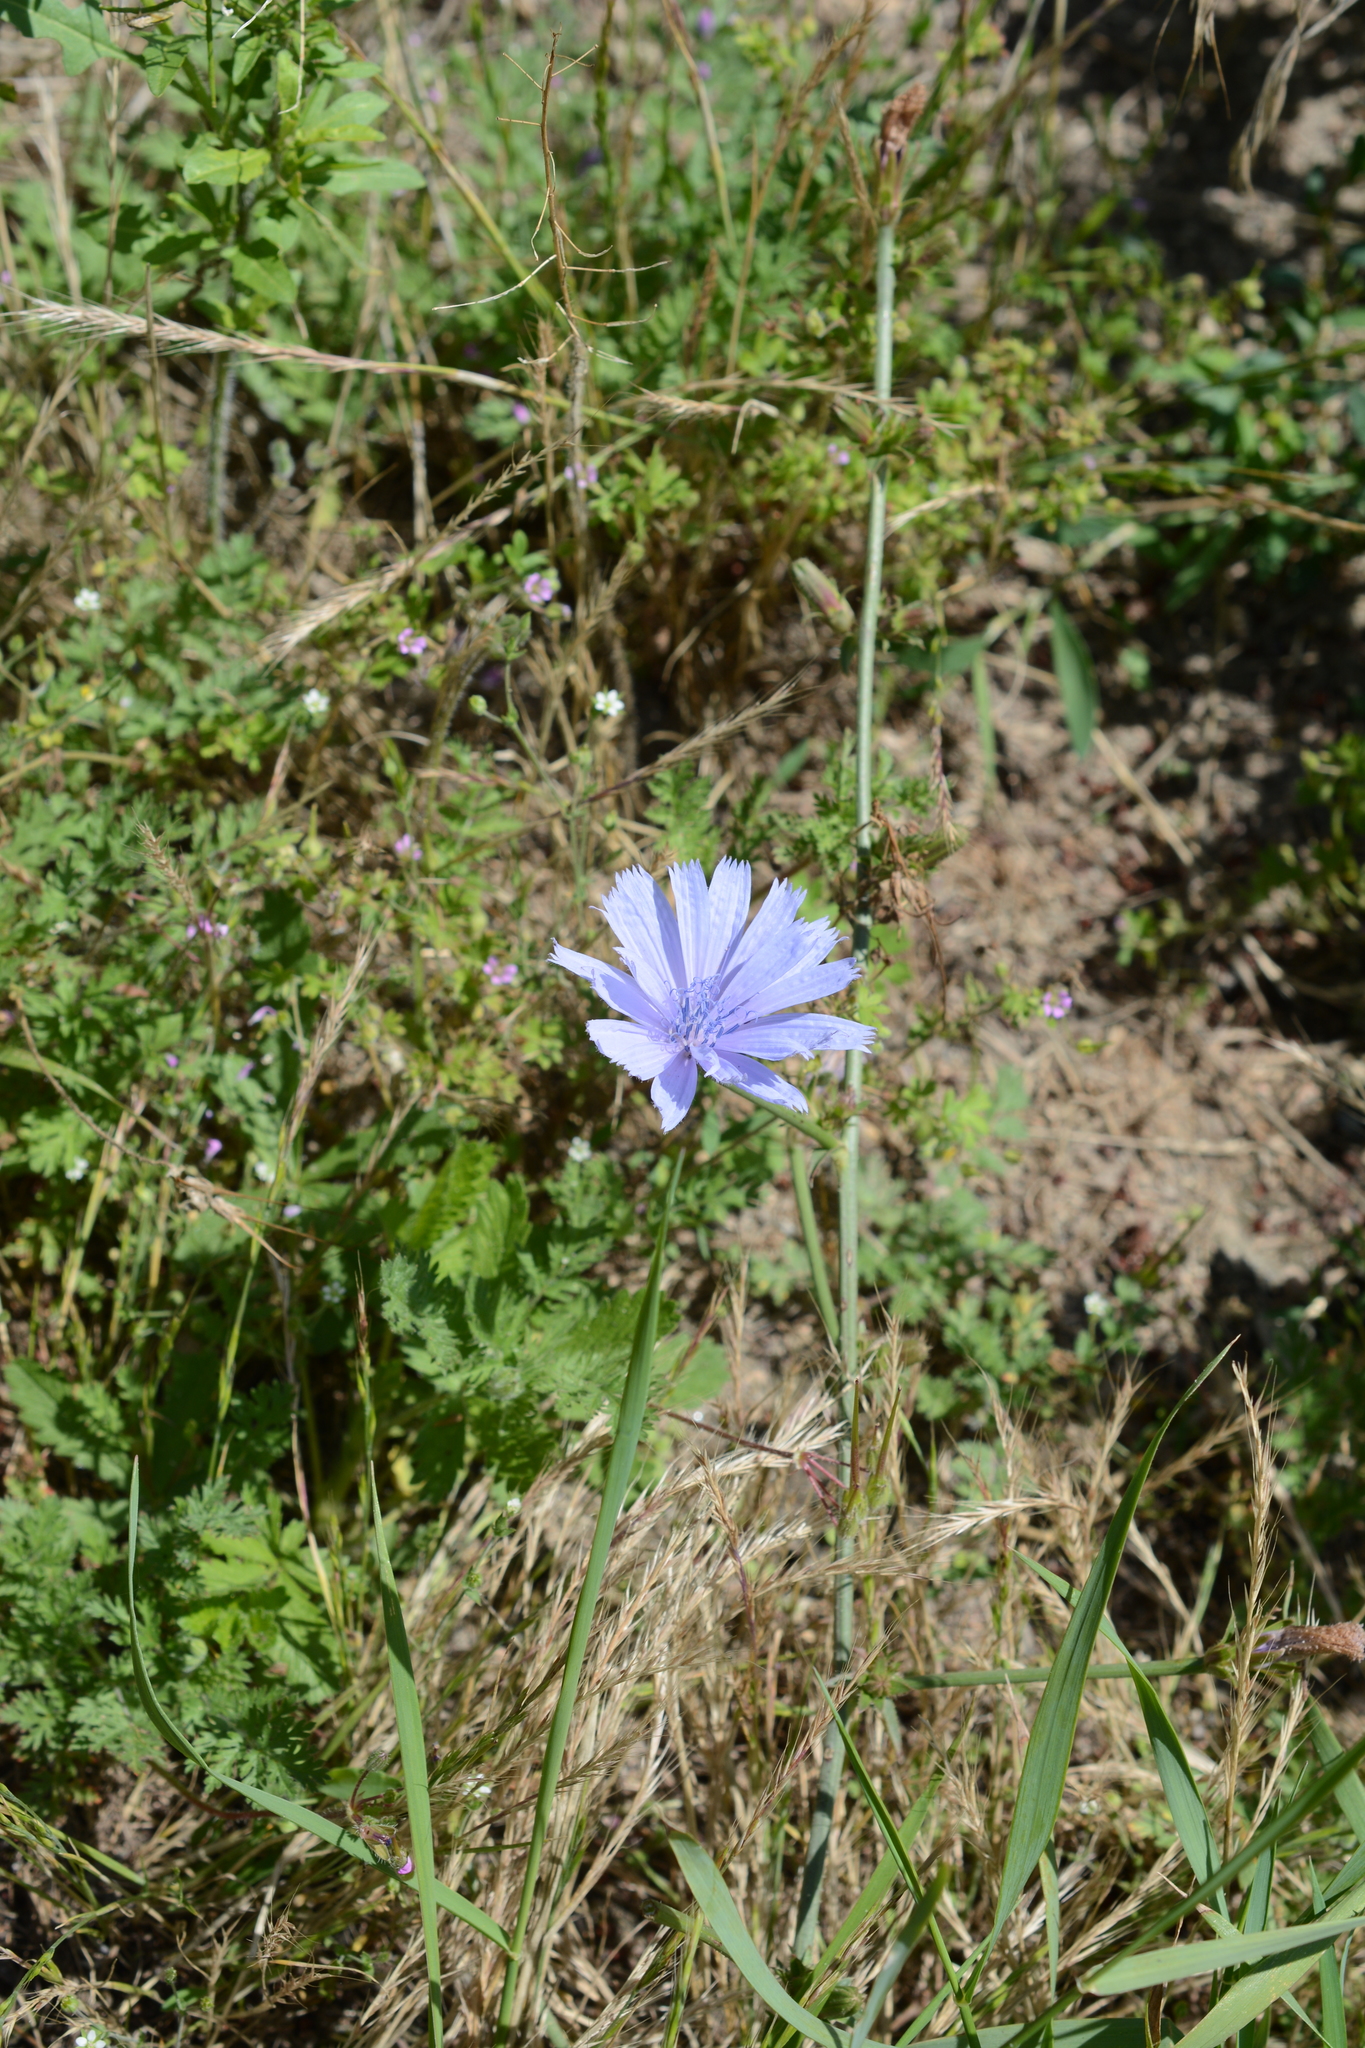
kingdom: Plantae
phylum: Tracheophyta
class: Magnoliopsida
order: Asterales
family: Asteraceae
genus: Cichorium
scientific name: Cichorium intybus
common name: Chicory
